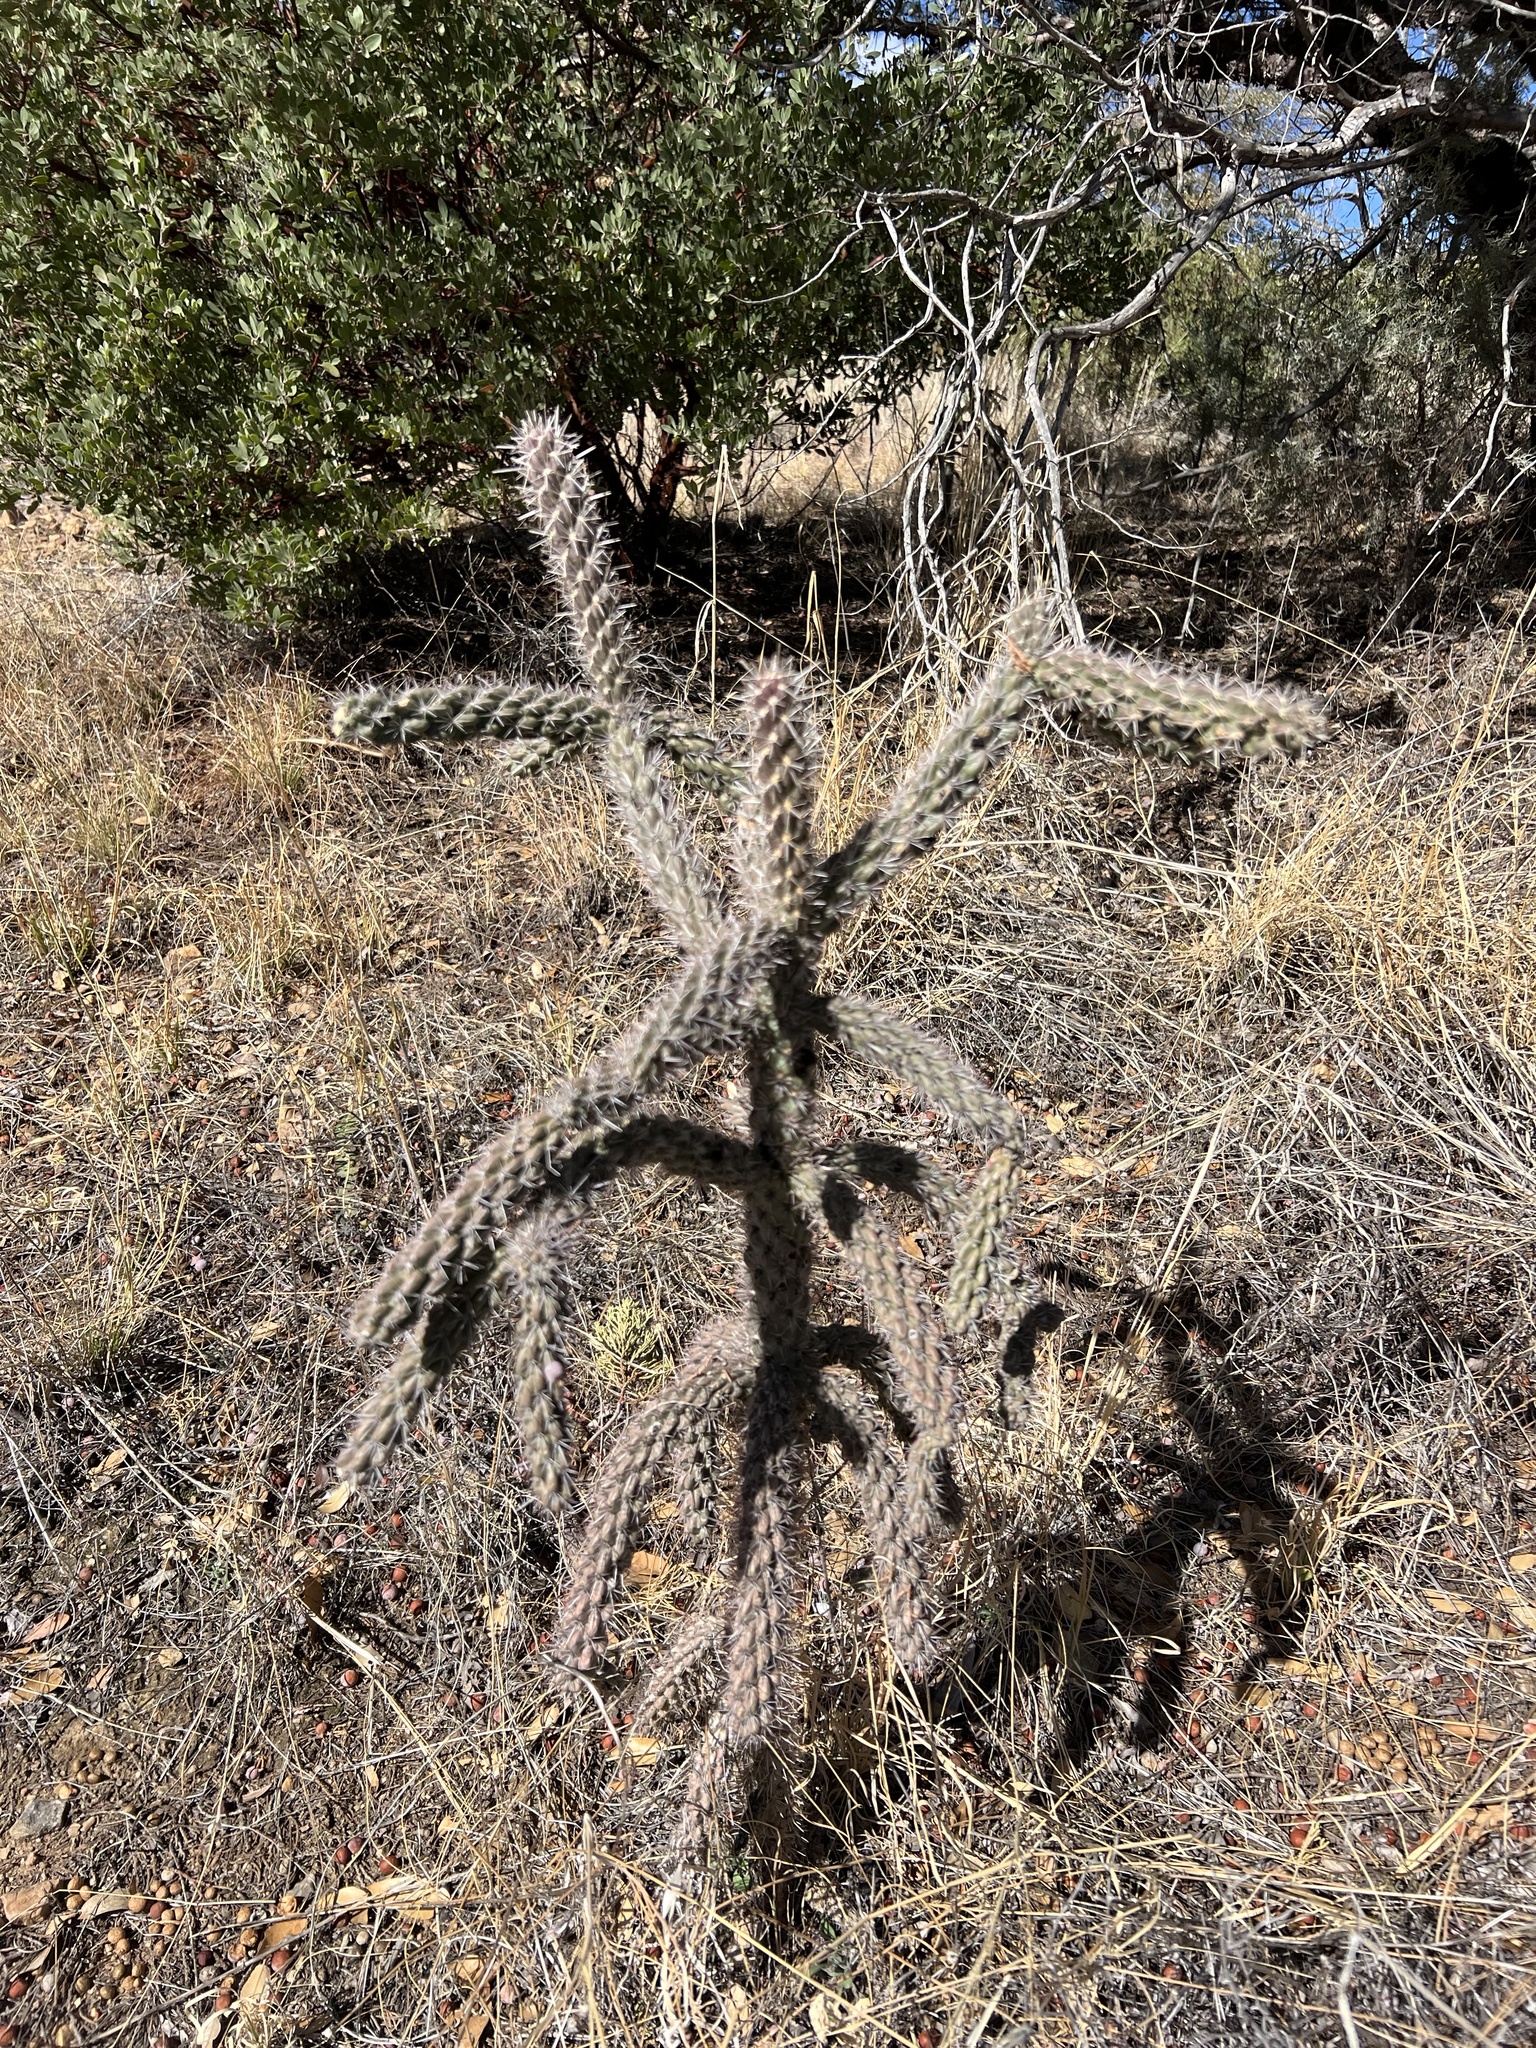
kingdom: Plantae
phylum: Tracheophyta
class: Magnoliopsida
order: Caryophyllales
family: Cactaceae
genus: Cylindropuntia
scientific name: Cylindropuntia imbricata
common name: Candelabrum cactus
